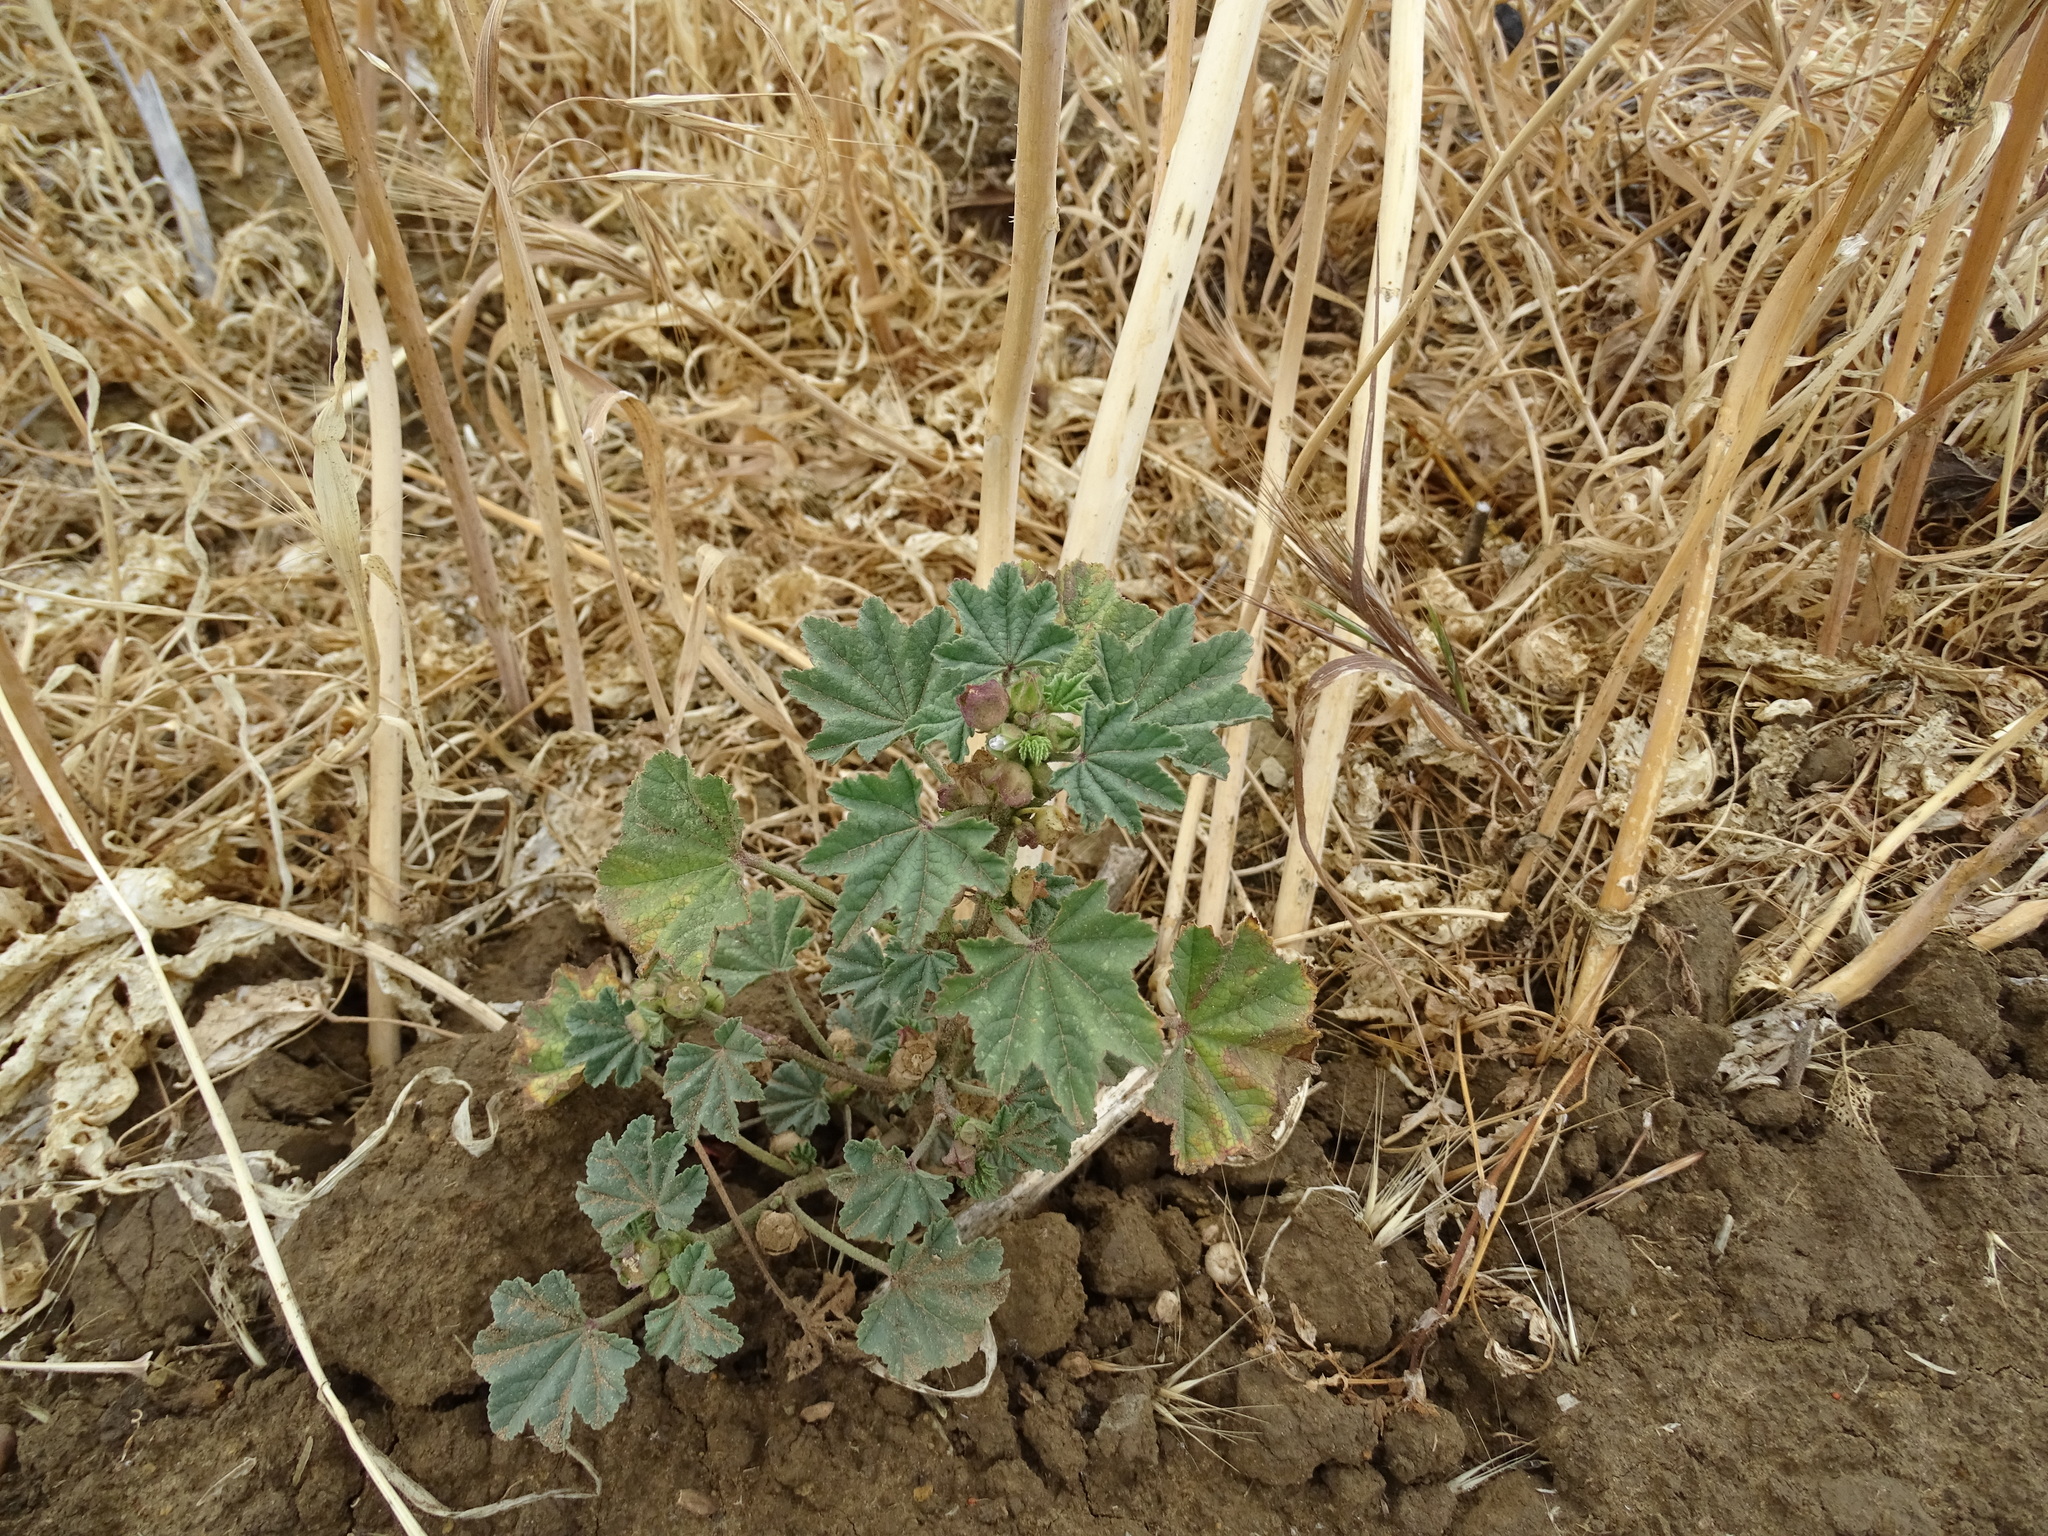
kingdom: Plantae
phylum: Tracheophyta
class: Magnoliopsida
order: Malvales
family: Malvaceae
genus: Malva
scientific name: Malva parviflora
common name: Least mallow
